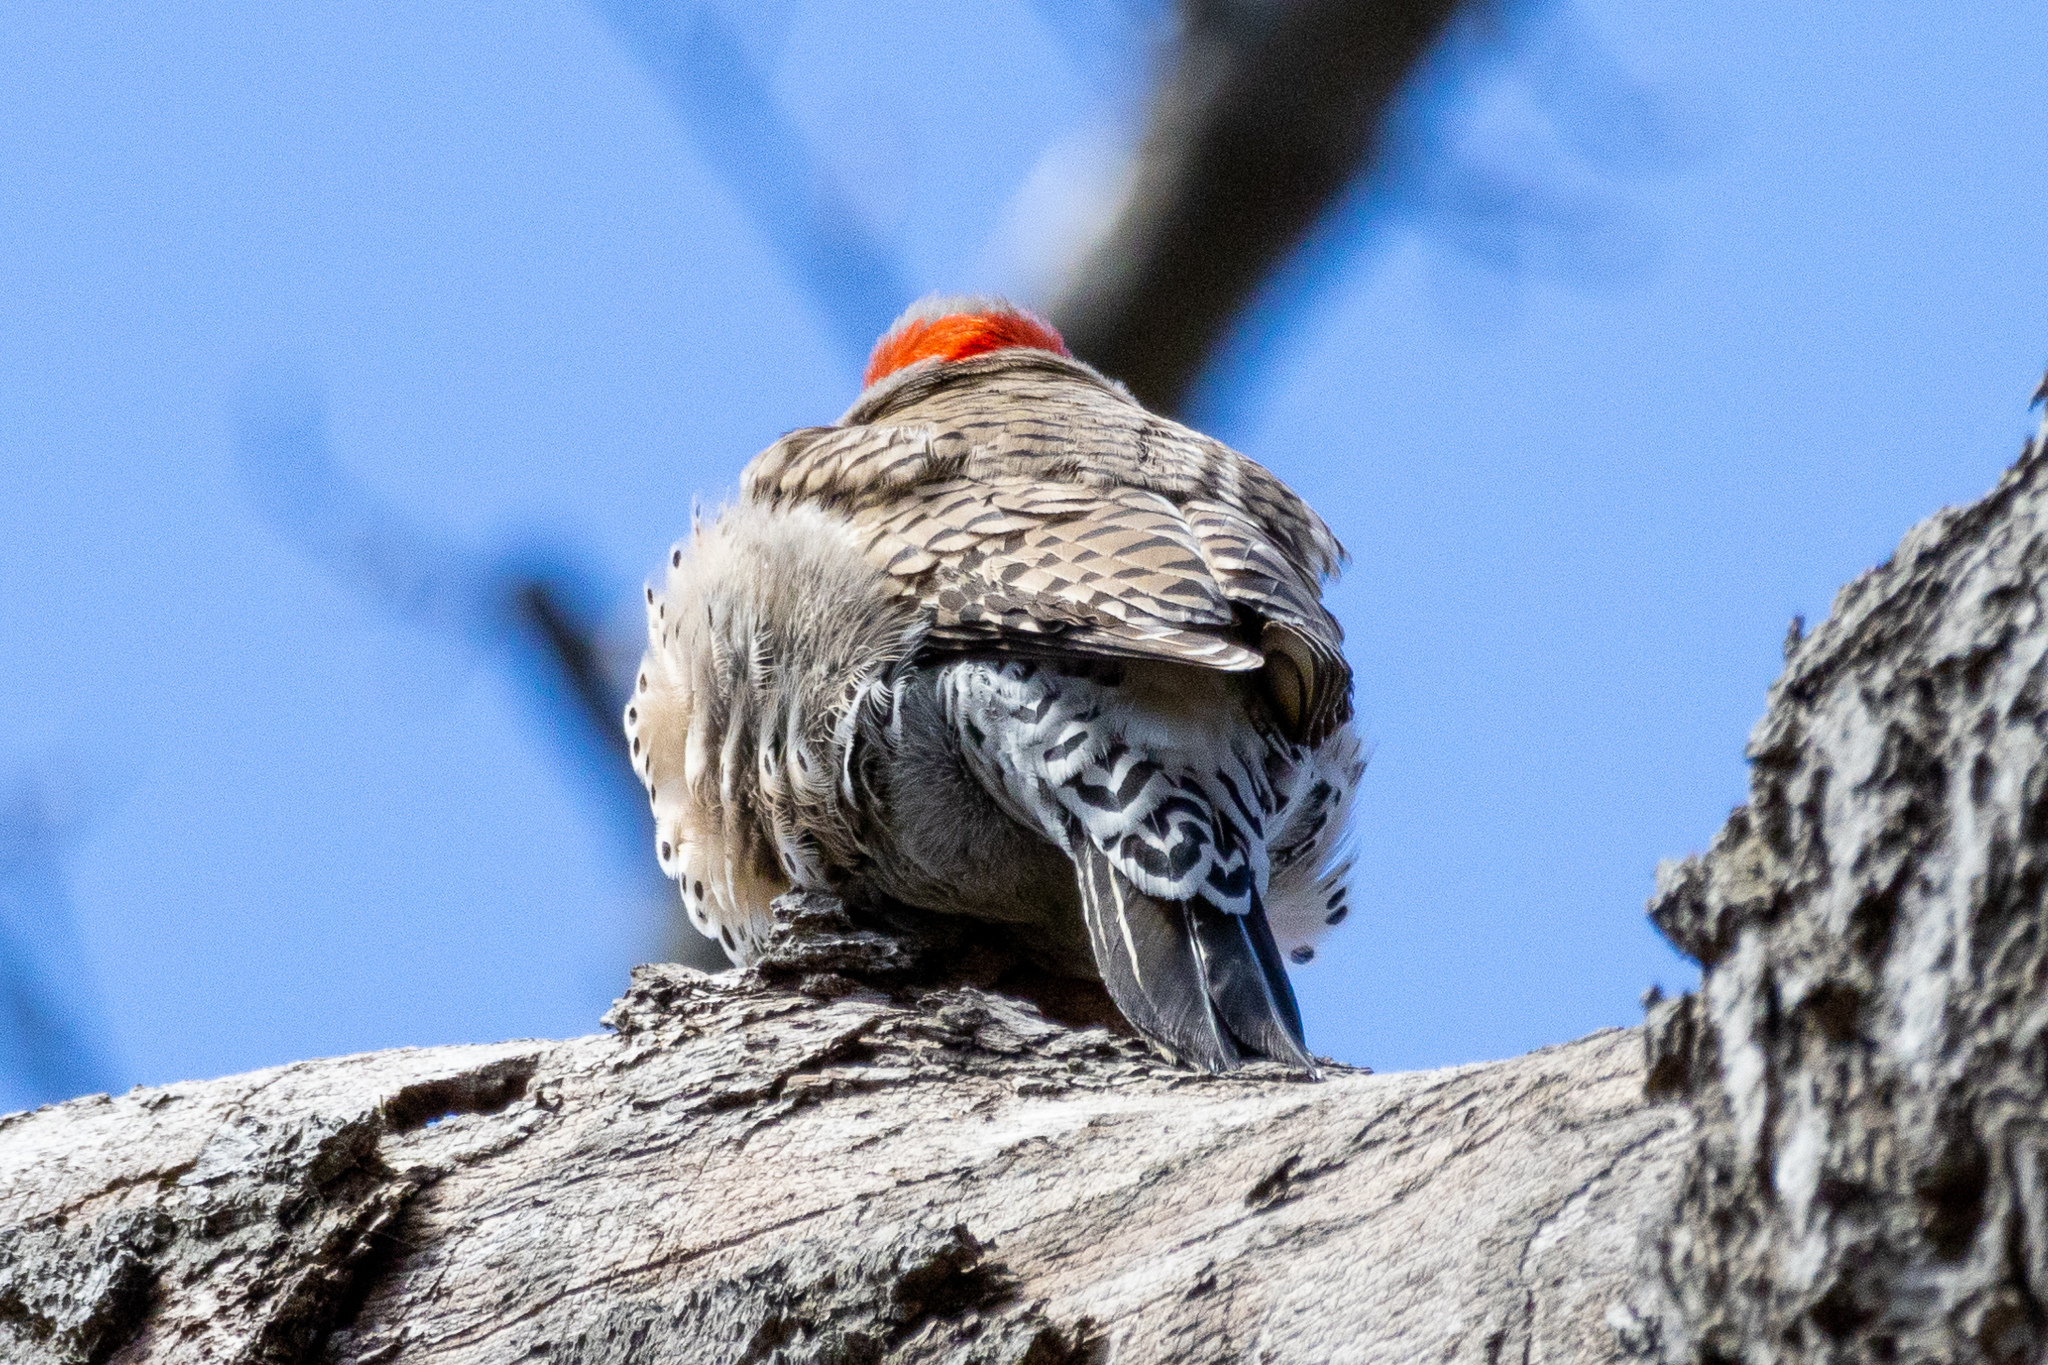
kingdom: Animalia
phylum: Chordata
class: Aves
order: Piciformes
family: Picidae
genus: Colaptes
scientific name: Colaptes auratus
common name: Northern flicker
